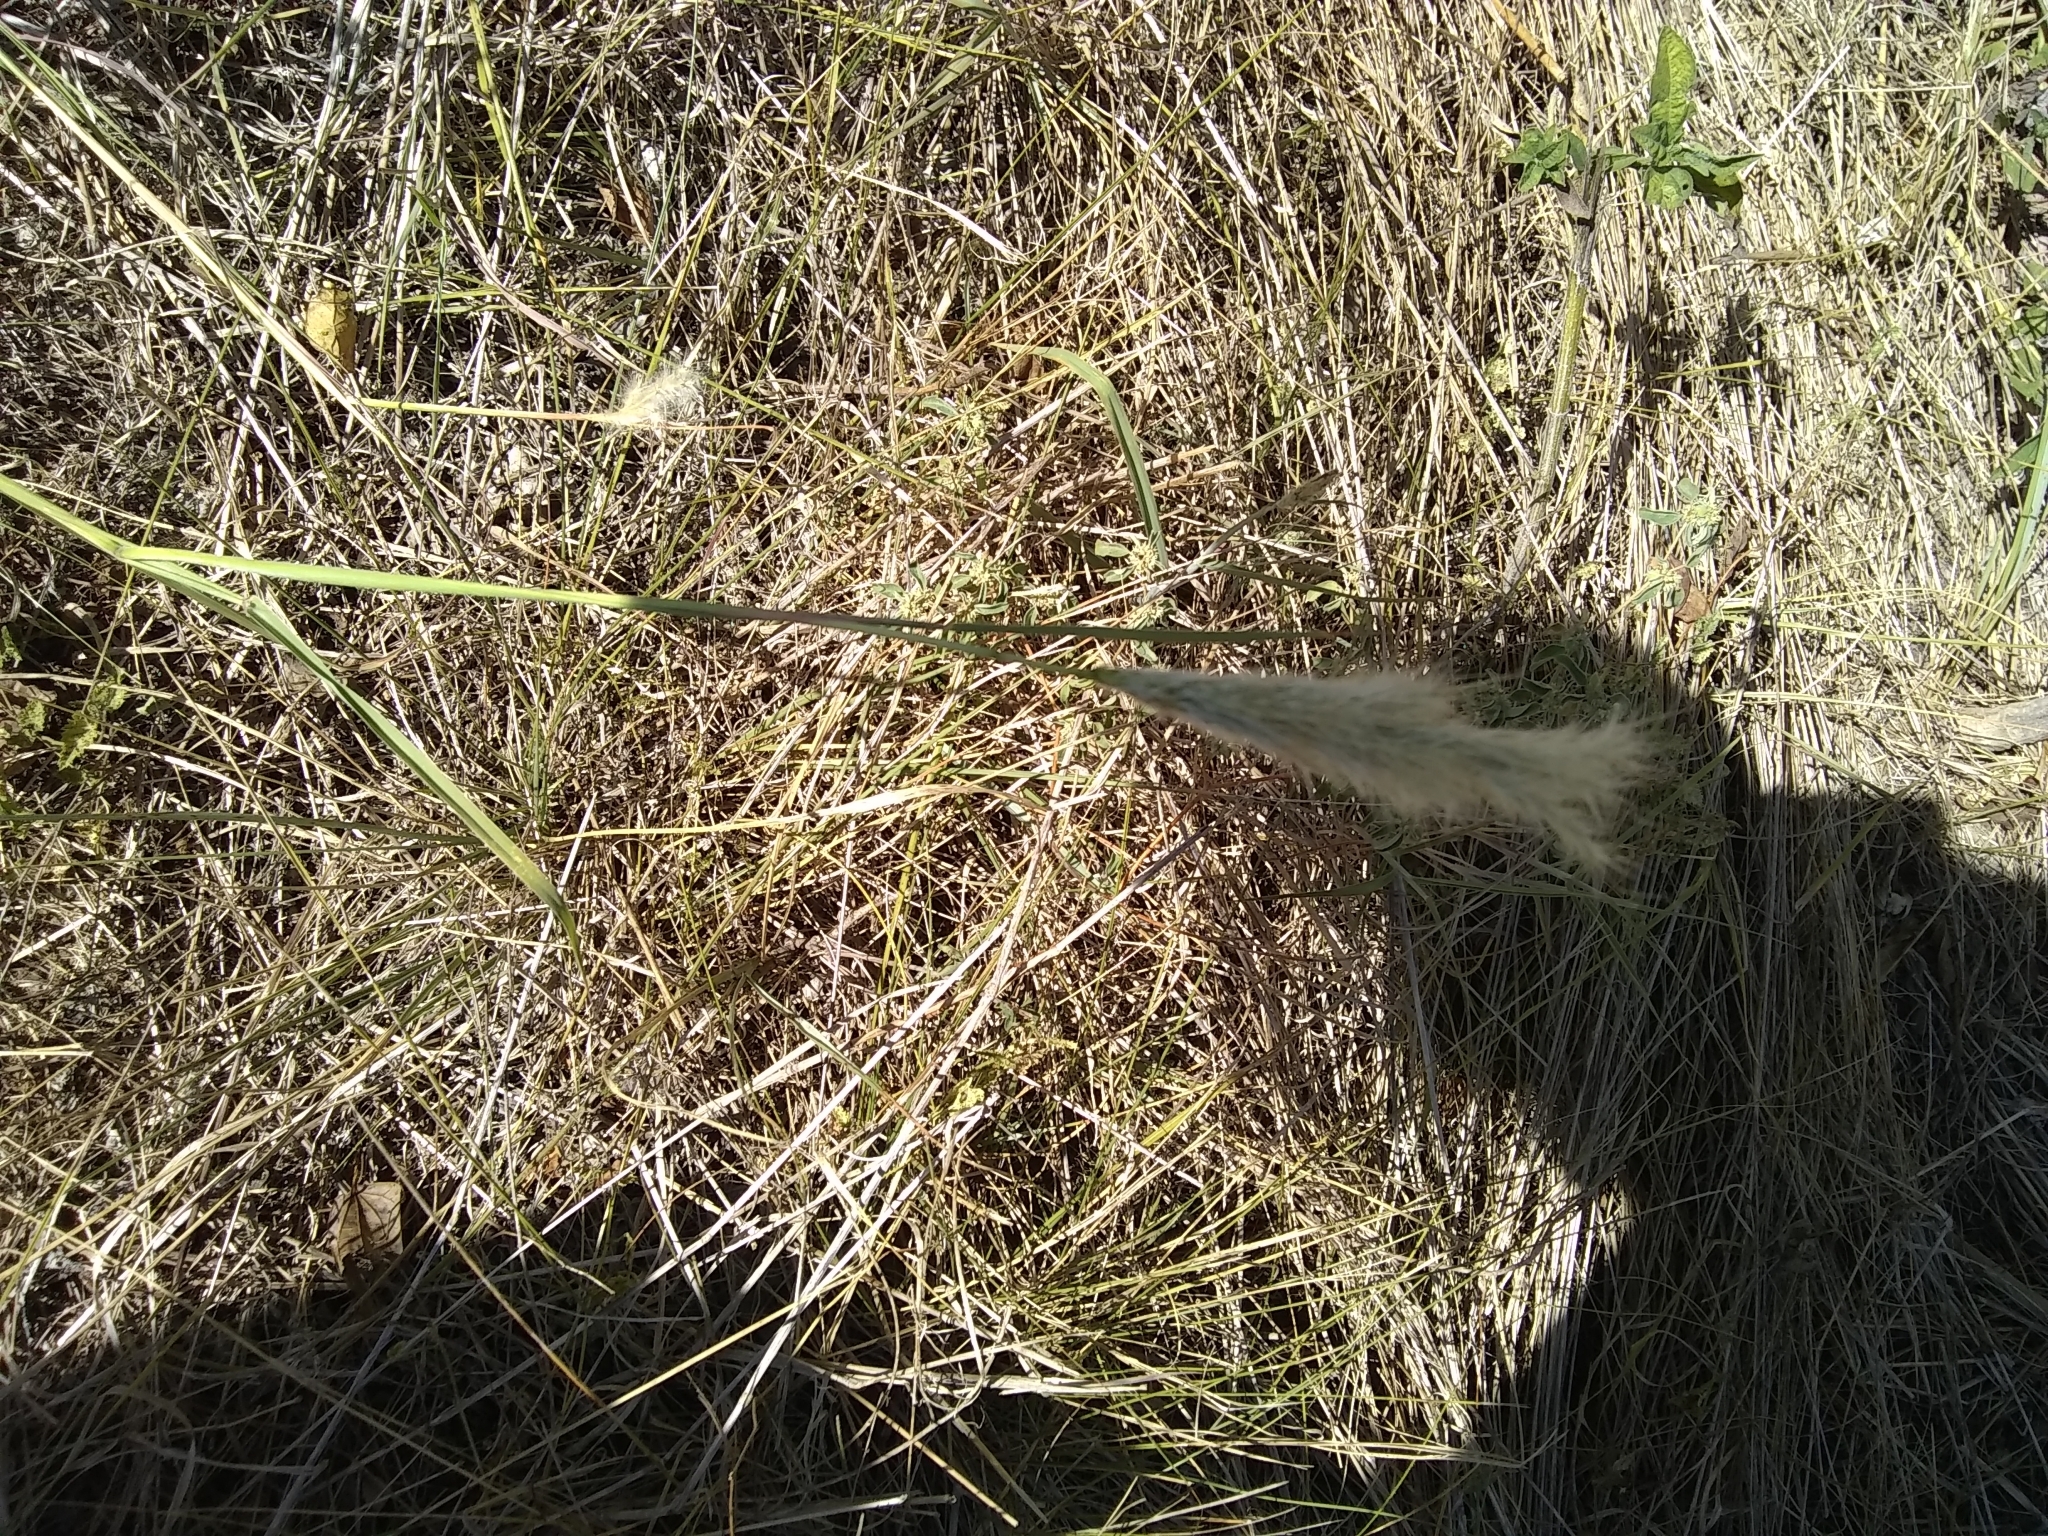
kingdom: Plantae
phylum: Tracheophyta
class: Liliopsida
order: Poales
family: Poaceae
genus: Bothriochloa
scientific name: Bothriochloa torreyana
